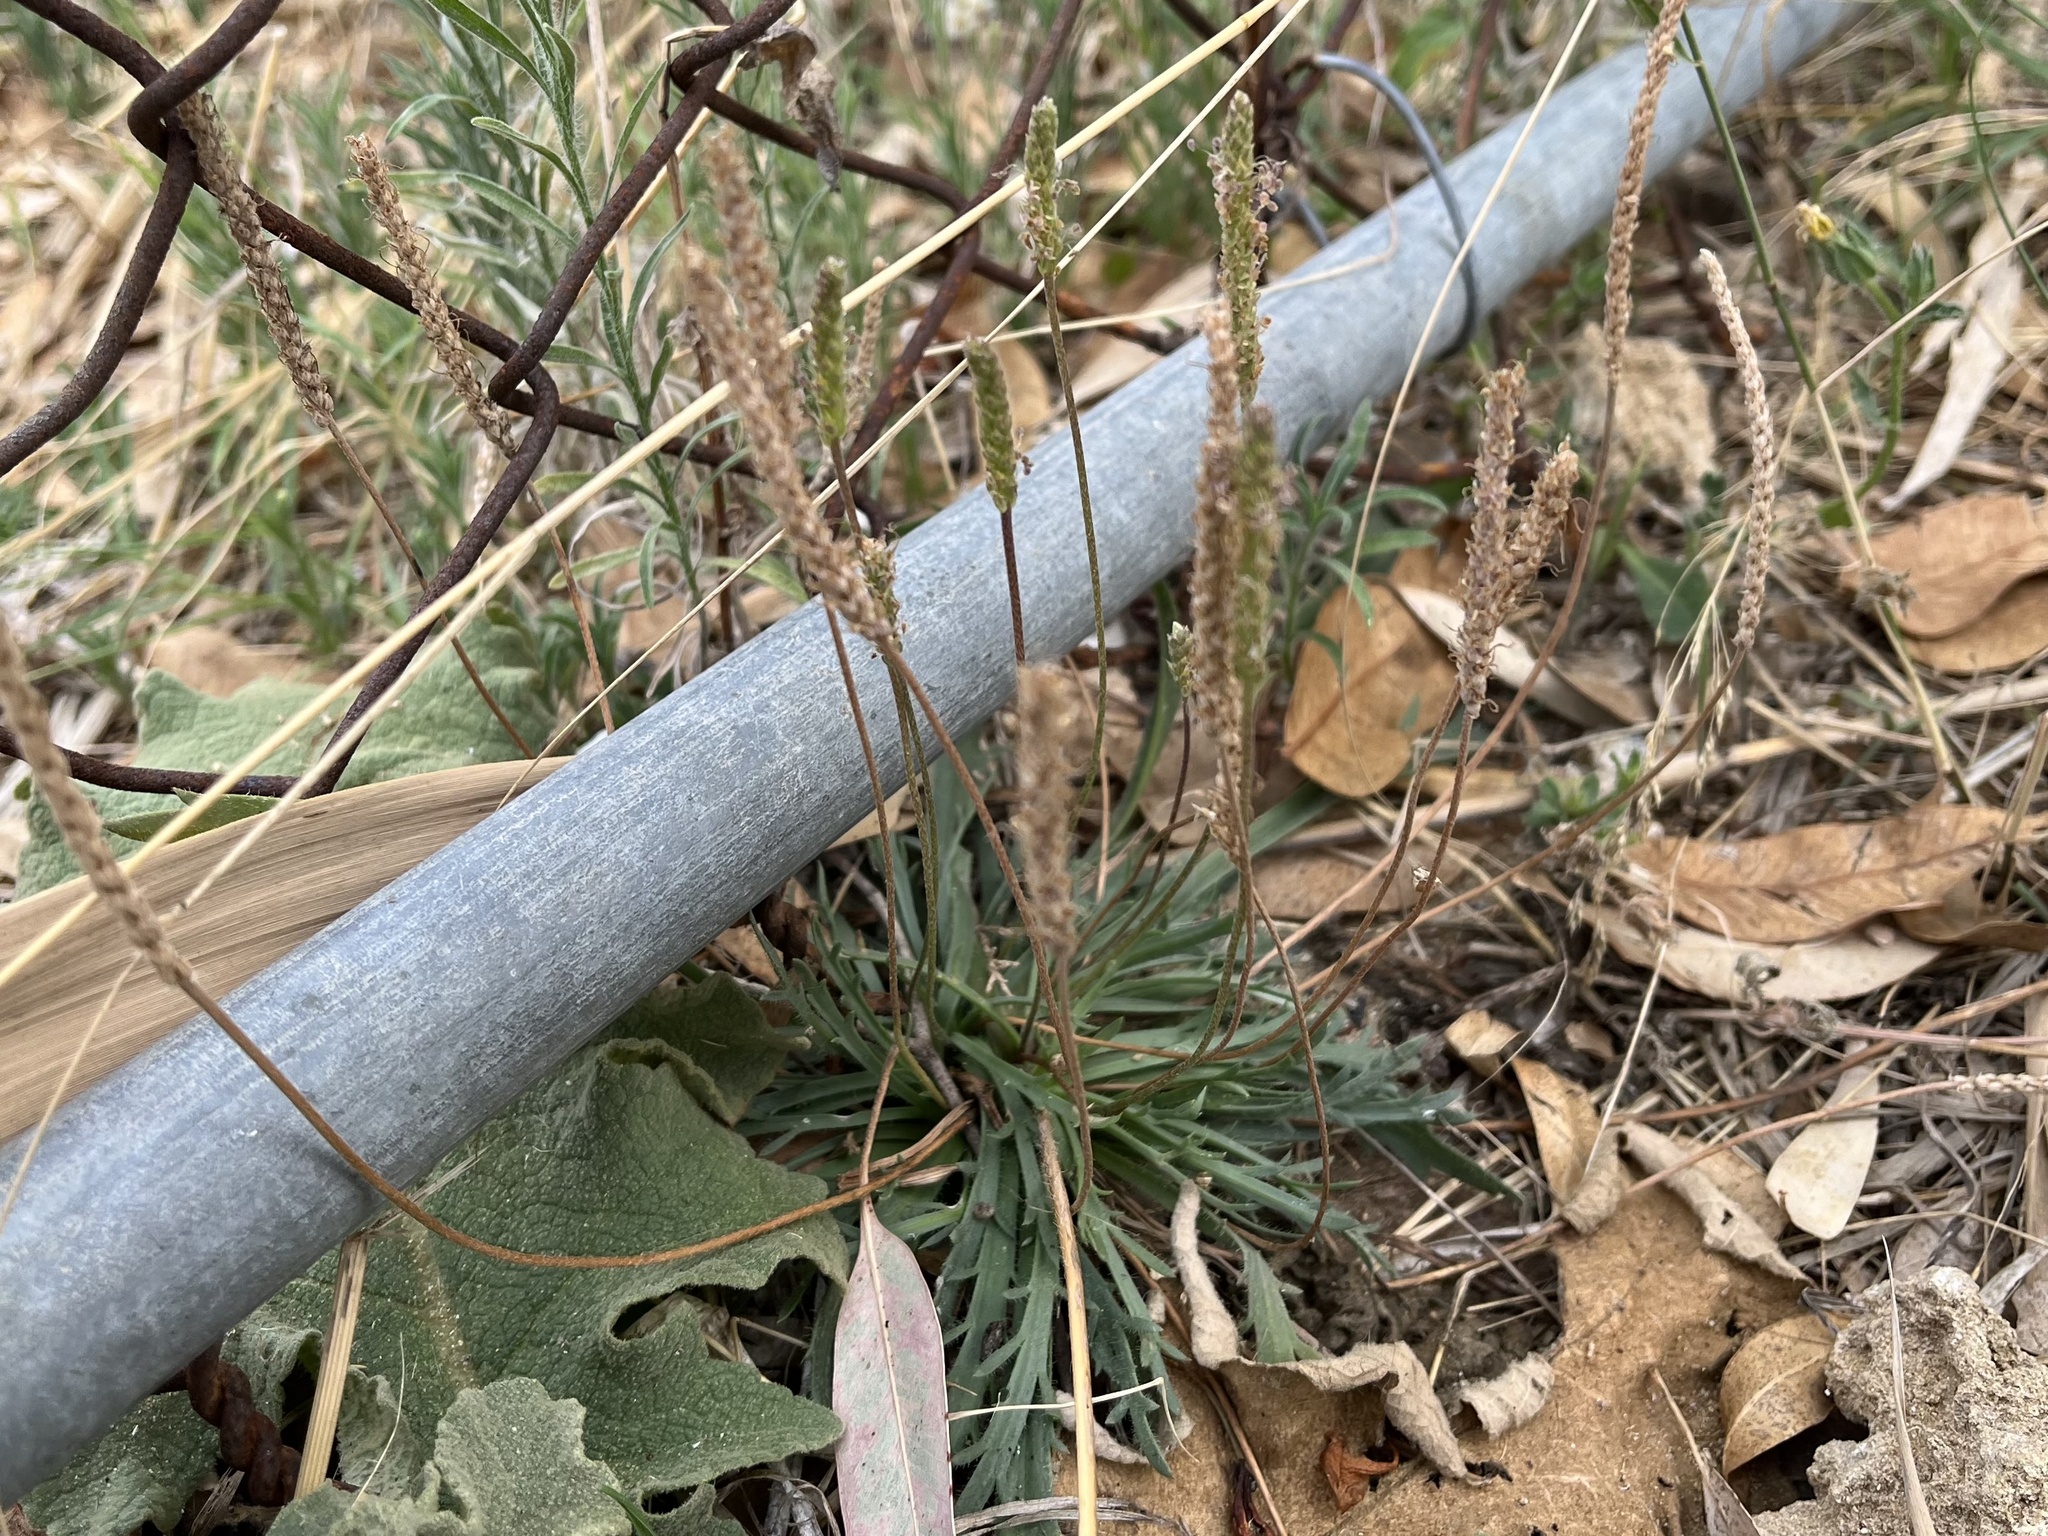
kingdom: Plantae
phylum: Tracheophyta
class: Magnoliopsida
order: Lamiales
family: Plantaginaceae
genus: Plantago
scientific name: Plantago coronopus
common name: Buck's-horn plantain
